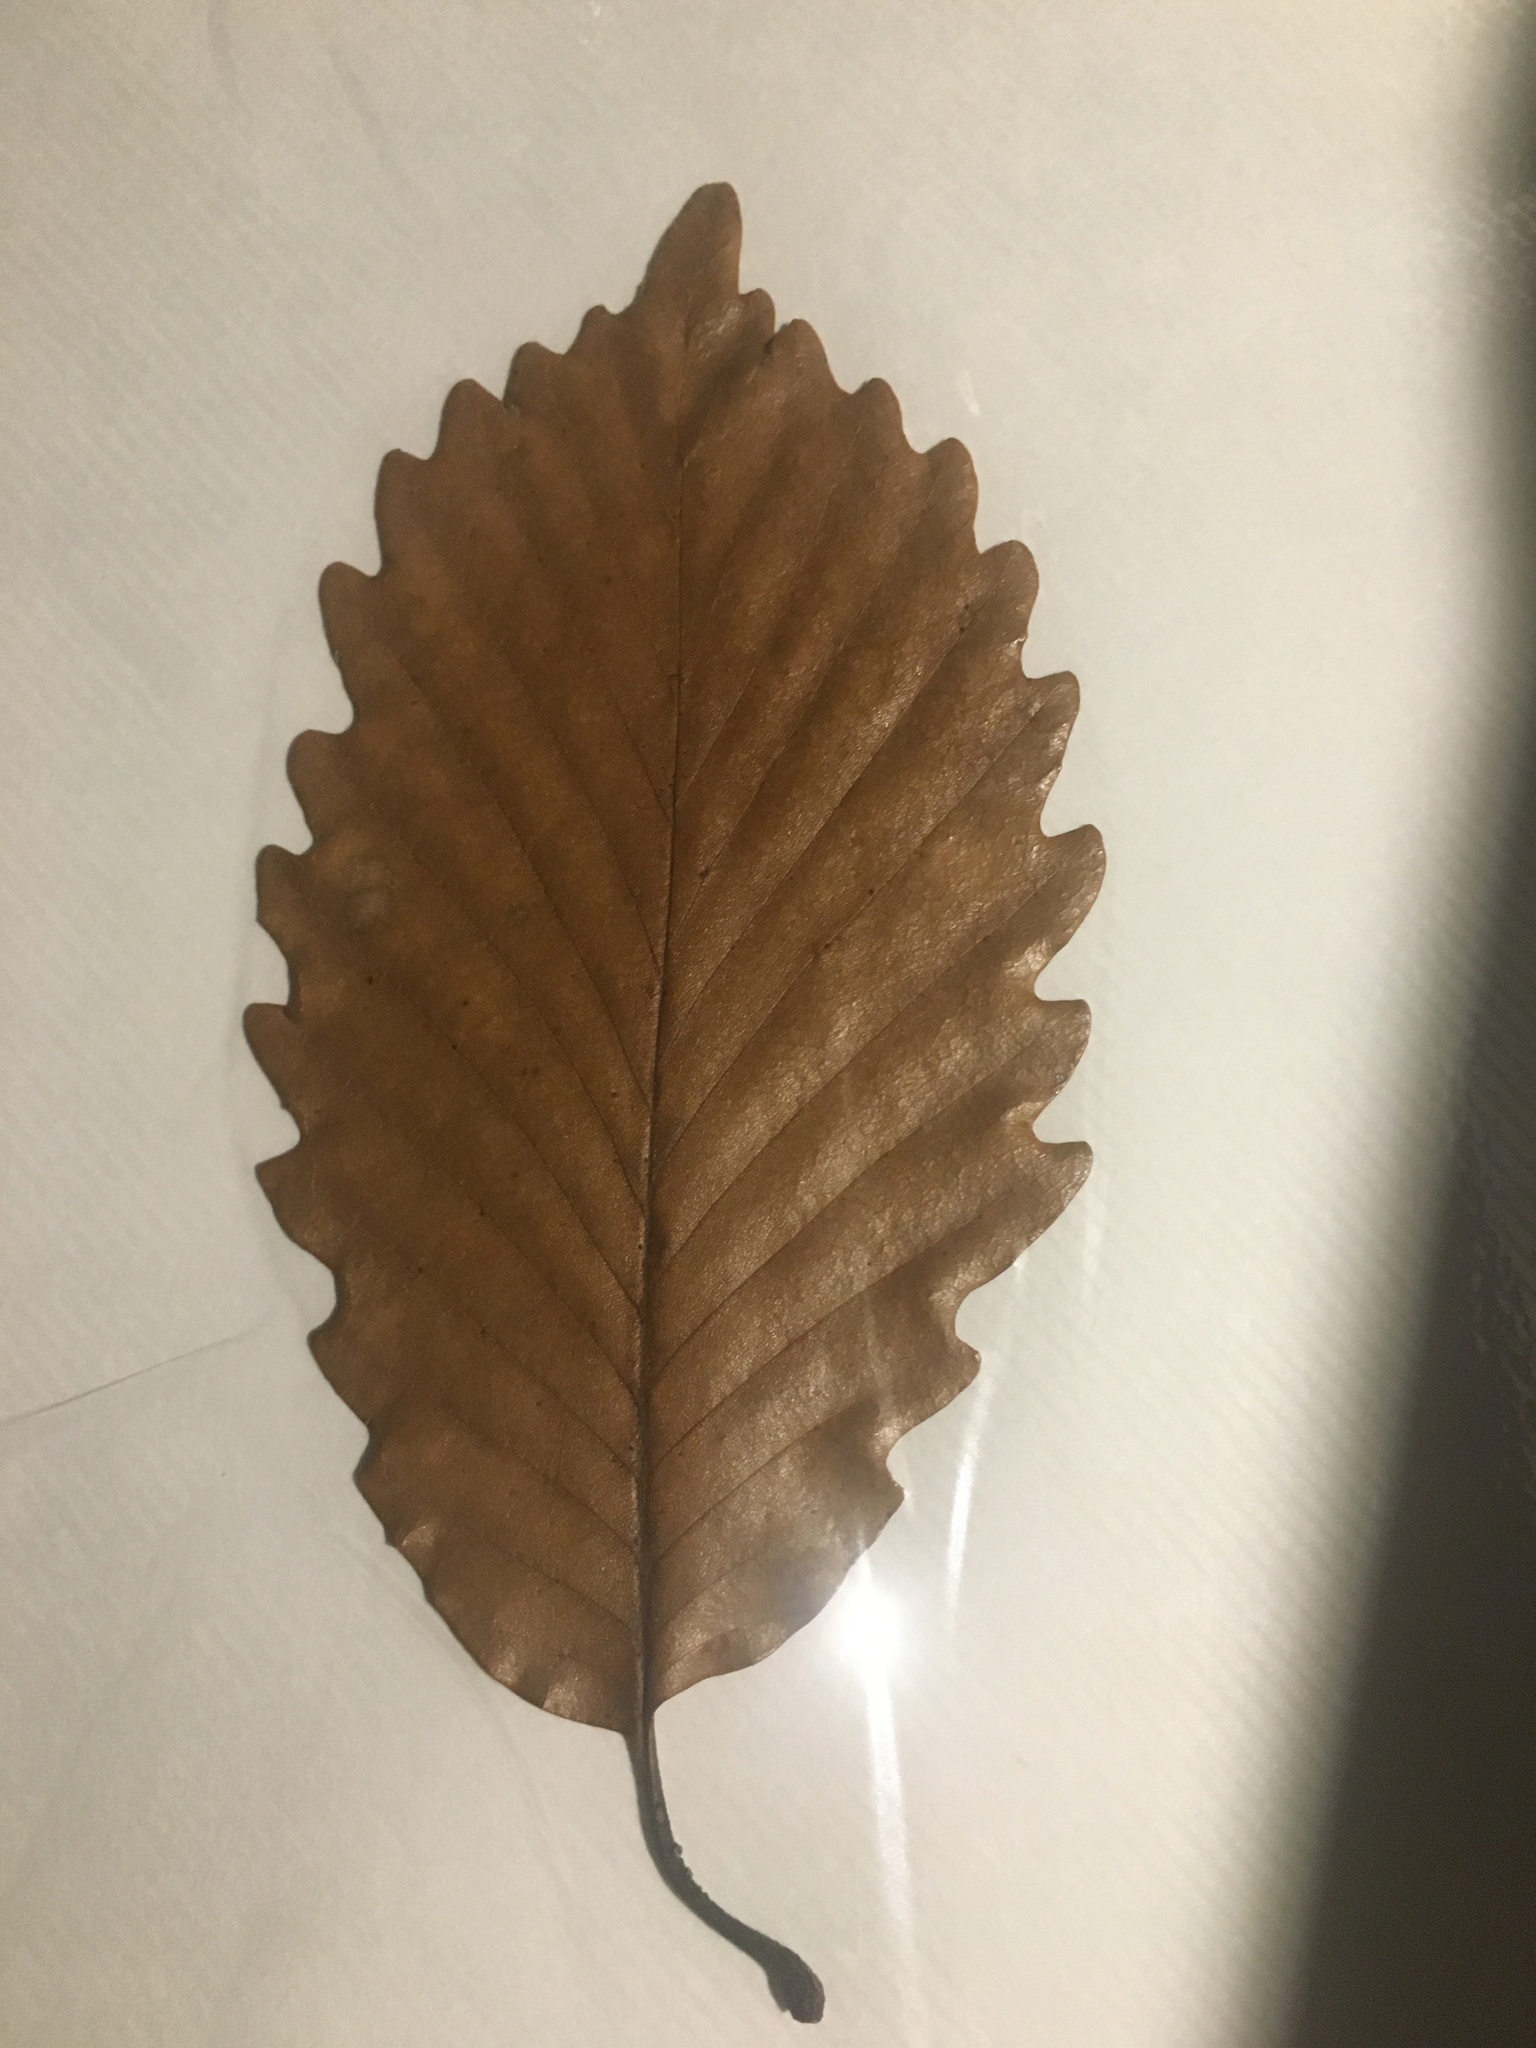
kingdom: Plantae
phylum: Tracheophyta
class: Magnoliopsida
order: Fagales
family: Fagaceae
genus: Quercus
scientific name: Quercus michauxii
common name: Swamp chestnut oak
